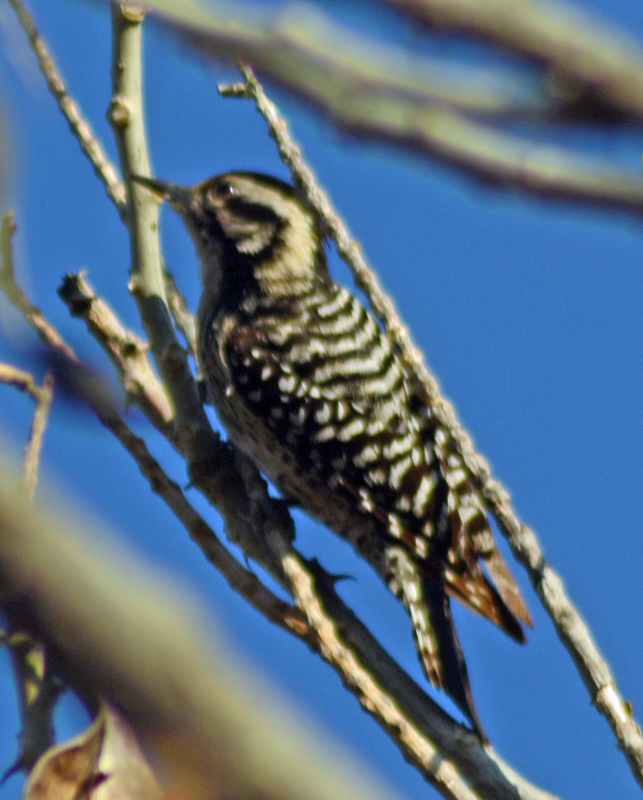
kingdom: Animalia
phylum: Chordata
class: Aves
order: Piciformes
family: Picidae
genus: Dryobates
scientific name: Dryobates scalaris
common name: Ladder-backed woodpecker
